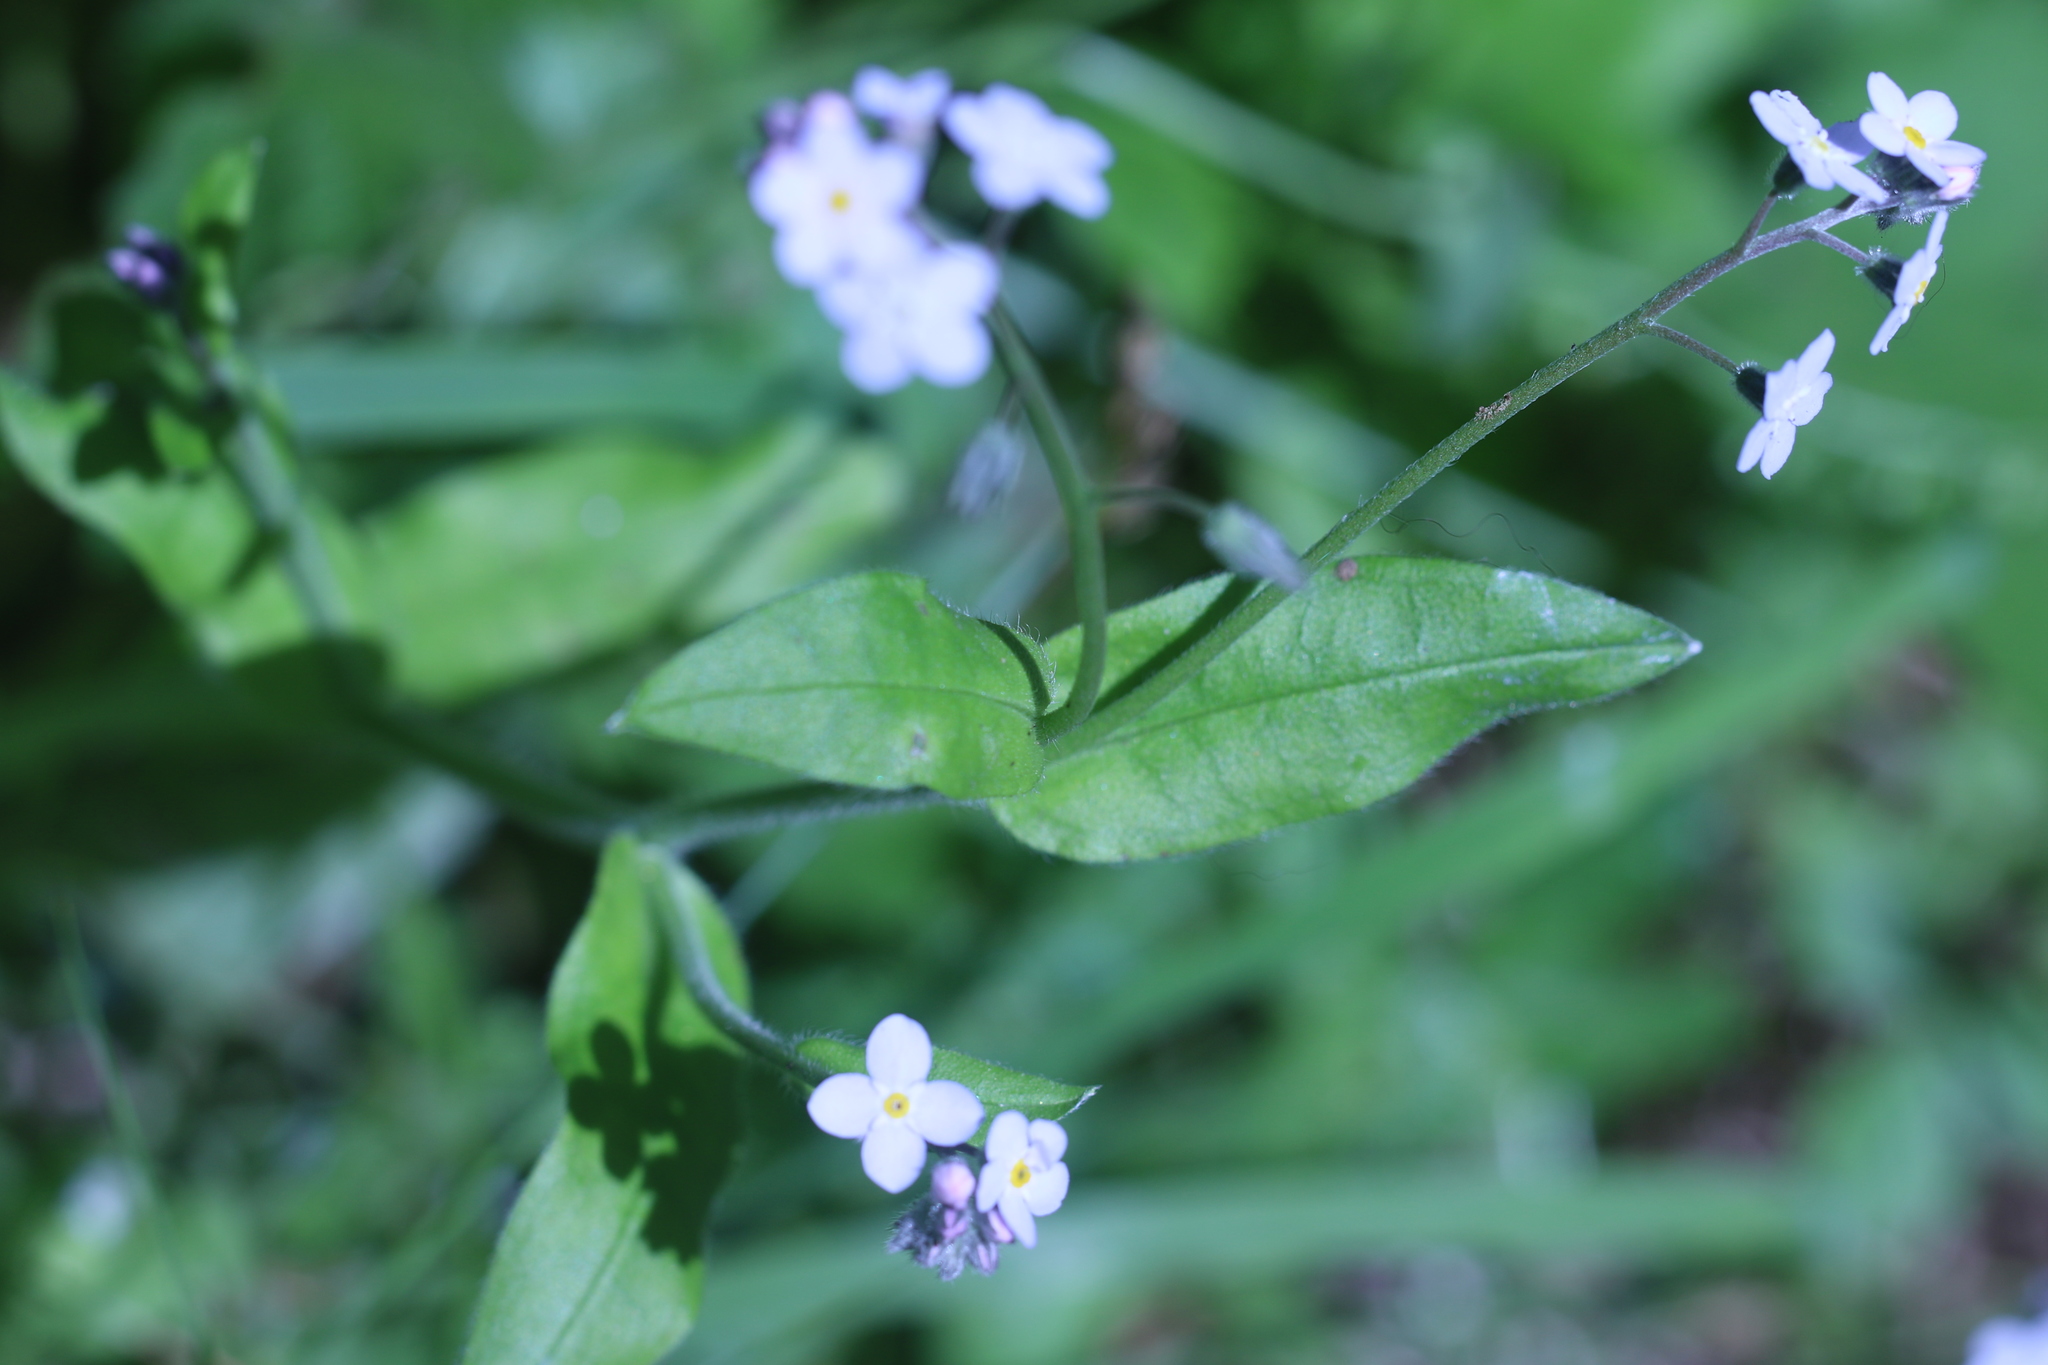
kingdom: Plantae
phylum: Tracheophyta
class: Magnoliopsida
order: Boraginales
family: Boraginaceae
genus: Myosotis
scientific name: Myosotis latifolia
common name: Broadleaf forget-me-not
